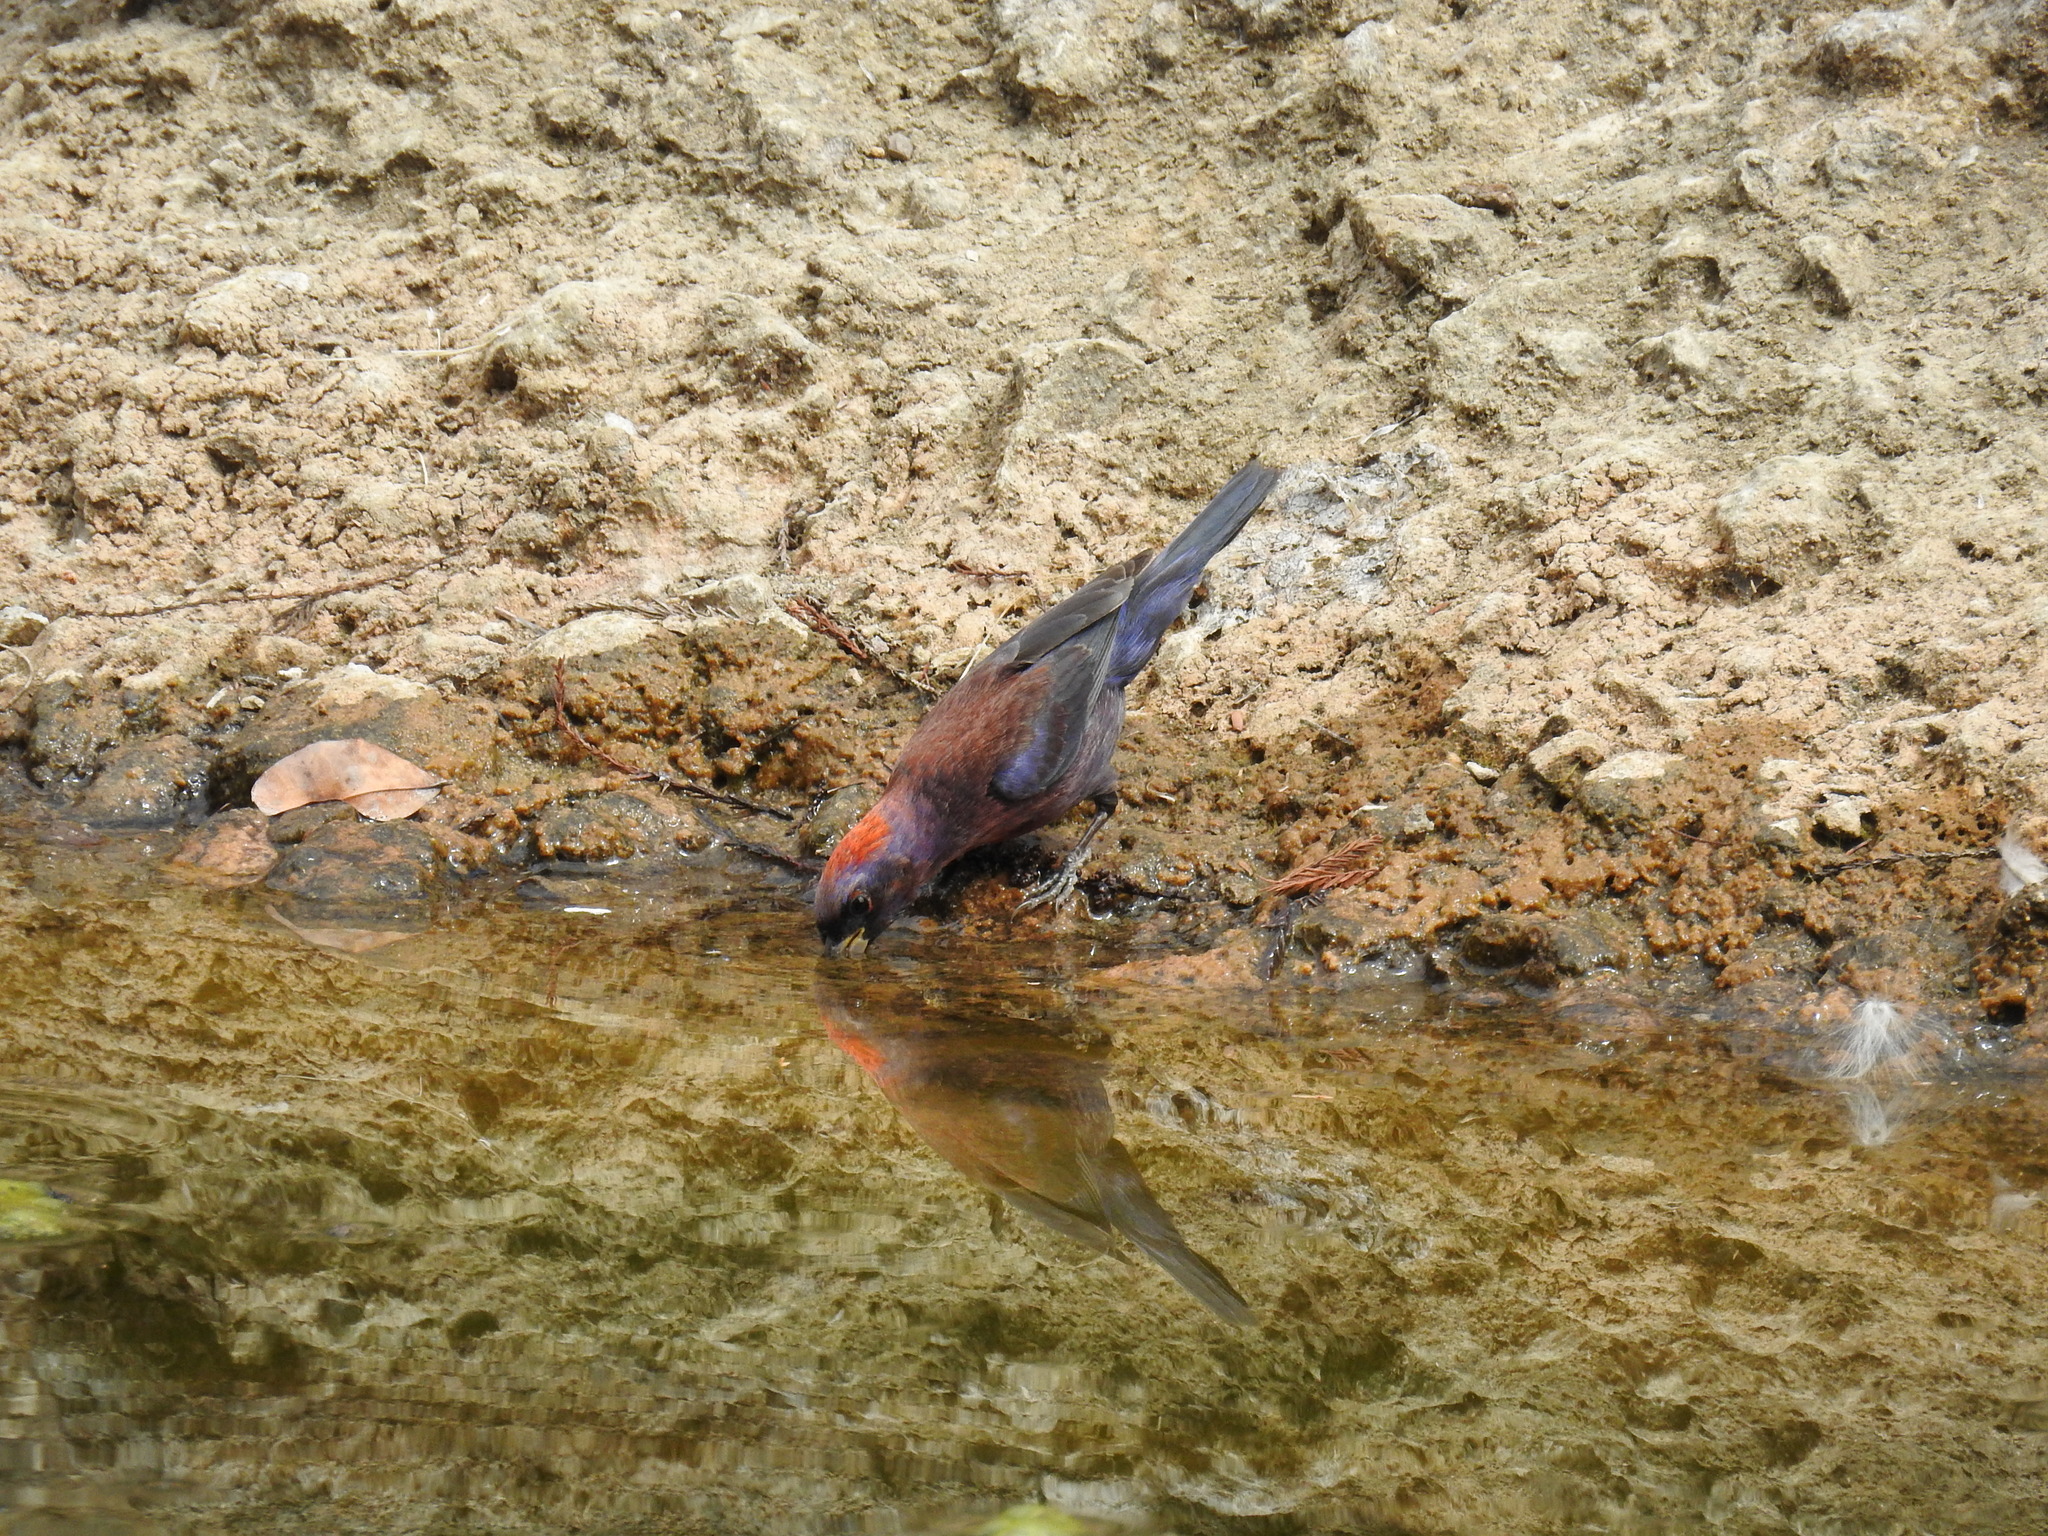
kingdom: Animalia
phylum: Chordata
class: Aves
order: Passeriformes
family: Cardinalidae
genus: Passerina
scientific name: Passerina versicolor
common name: Varied bunting
